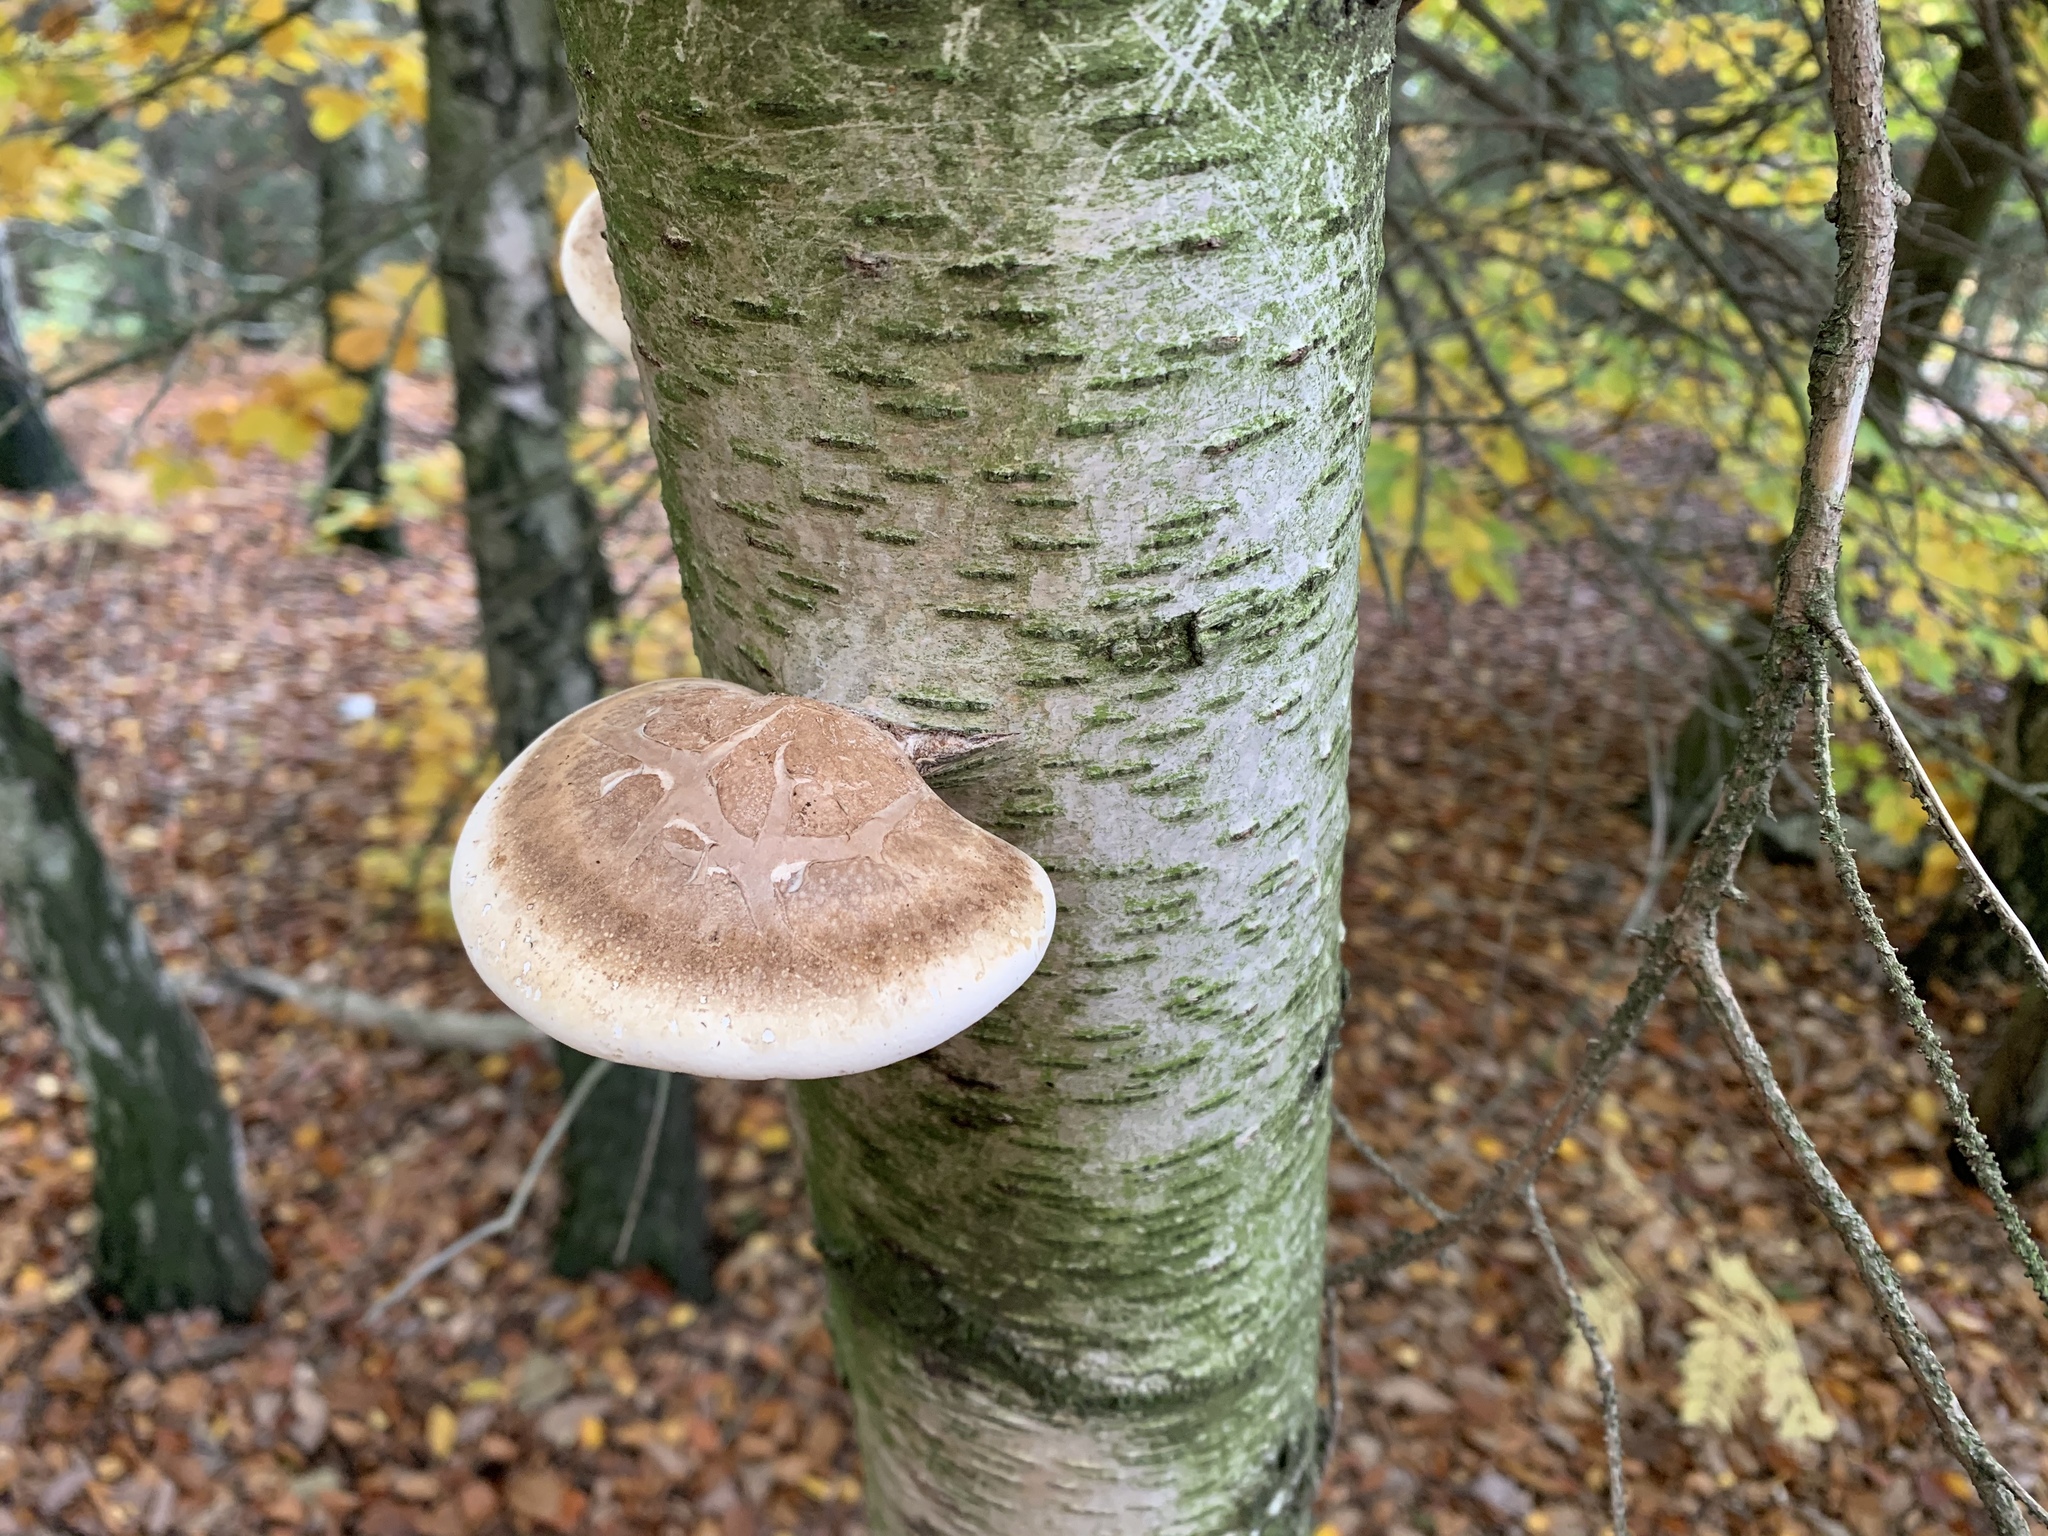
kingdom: Fungi
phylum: Basidiomycota
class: Agaricomycetes
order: Polyporales
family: Fomitopsidaceae
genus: Fomitopsis
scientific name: Fomitopsis betulina
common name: Birch polypore
